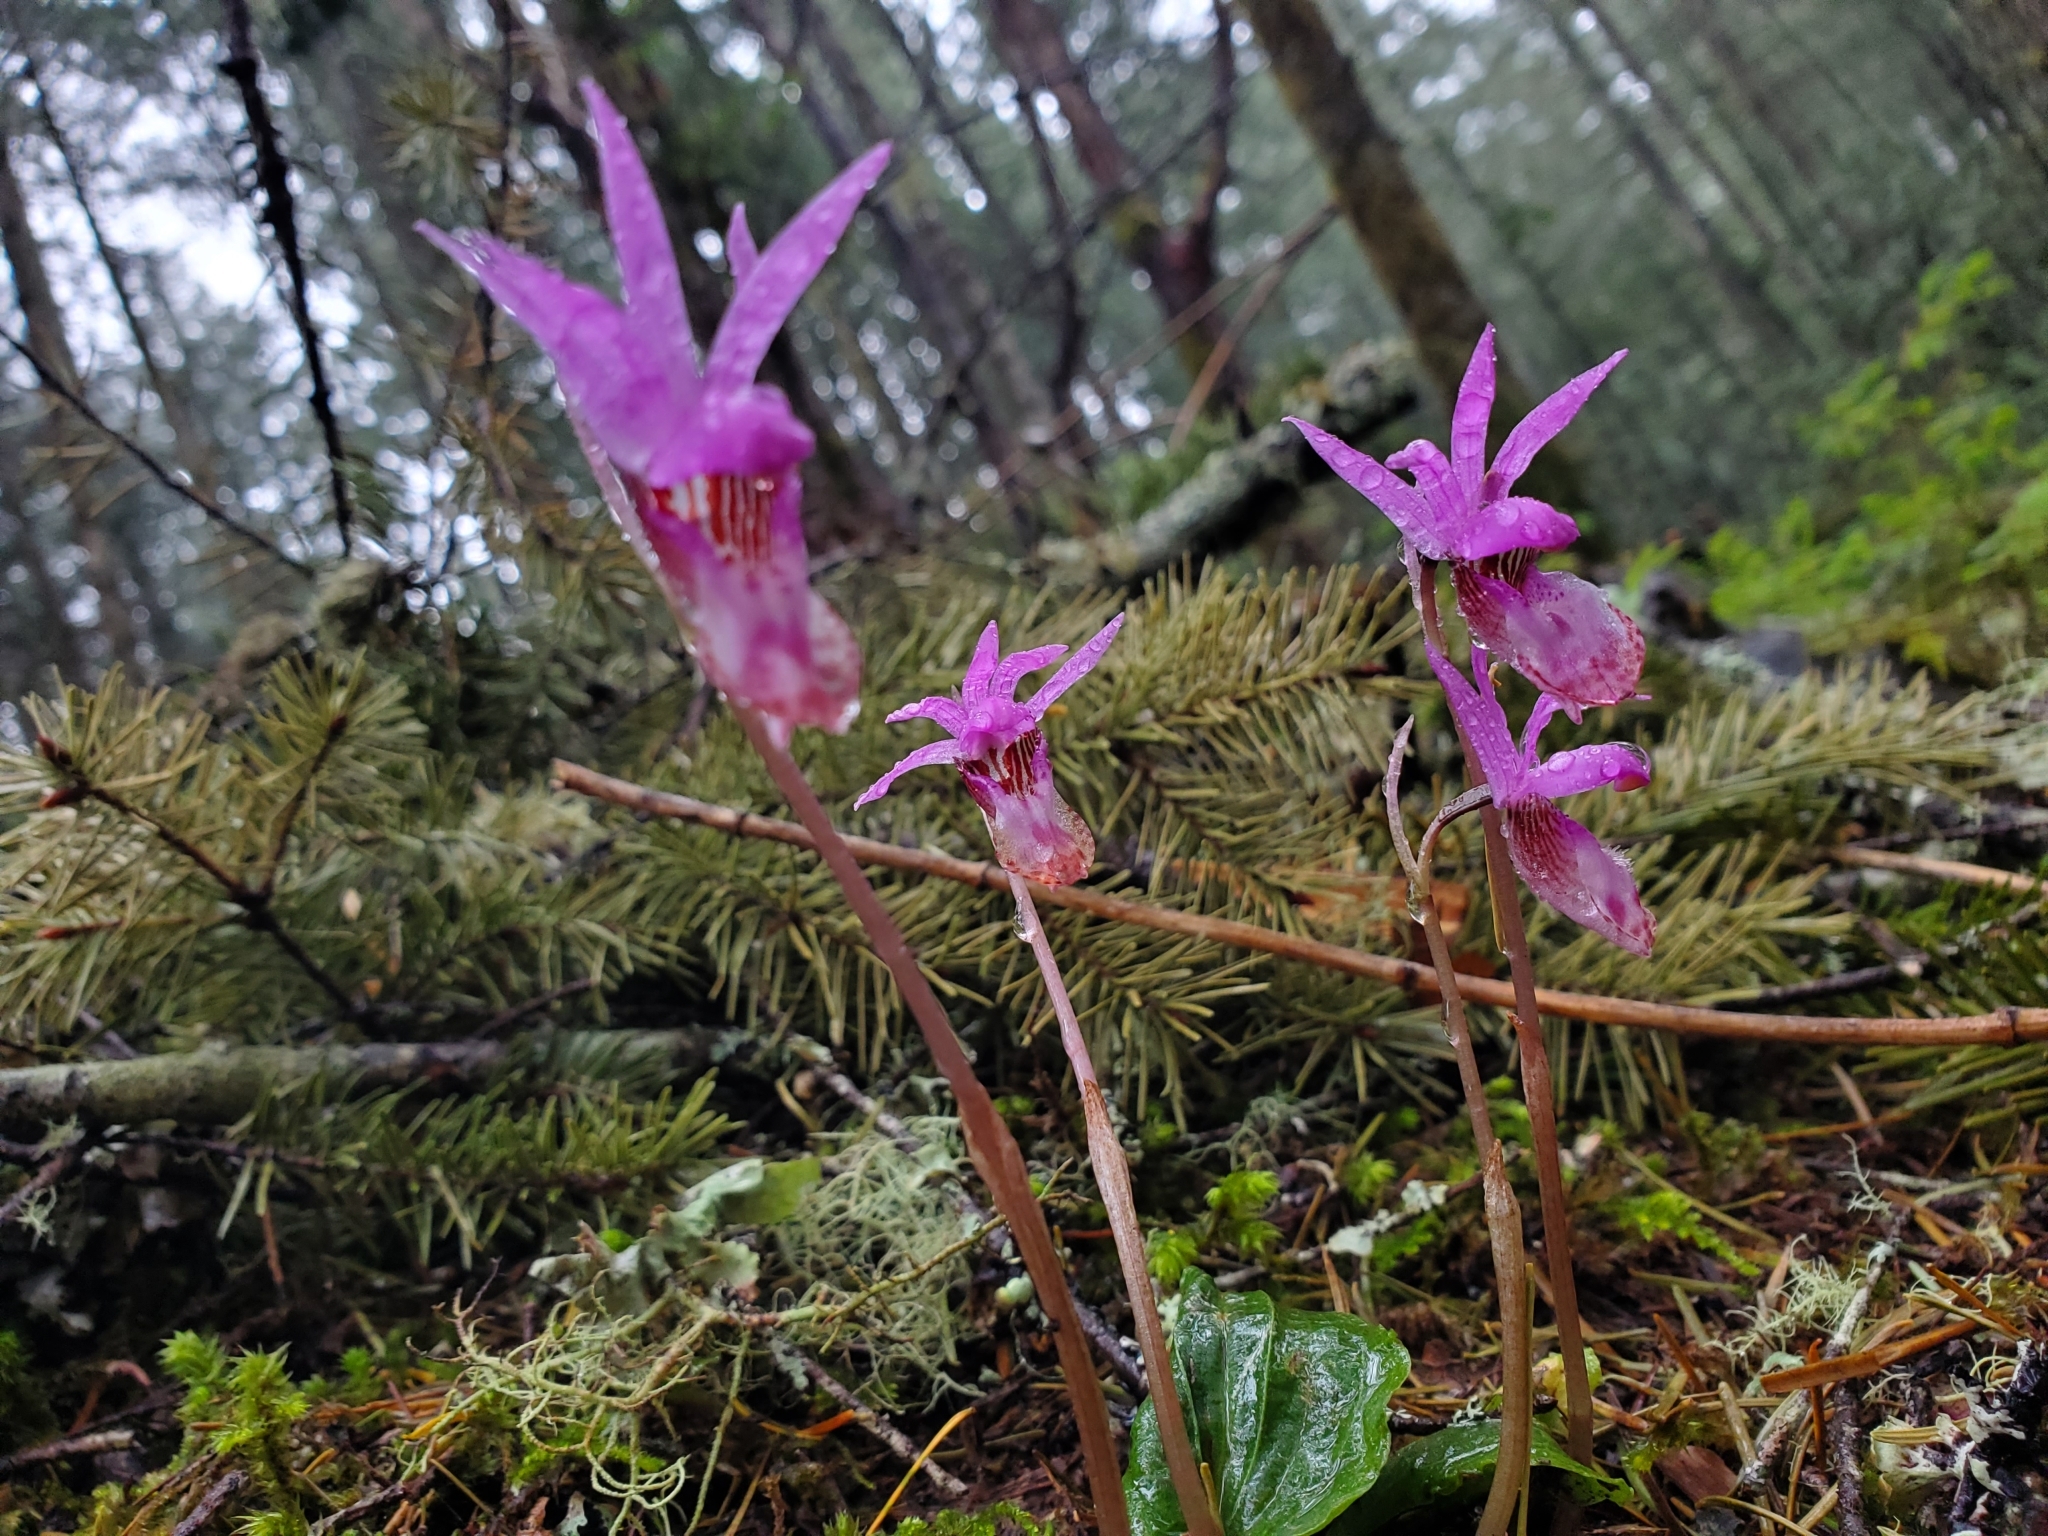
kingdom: Plantae
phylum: Tracheophyta
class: Liliopsida
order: Asparagales
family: Orchidaceae
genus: Calypso
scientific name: Calypso bulbosa
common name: Calypso
